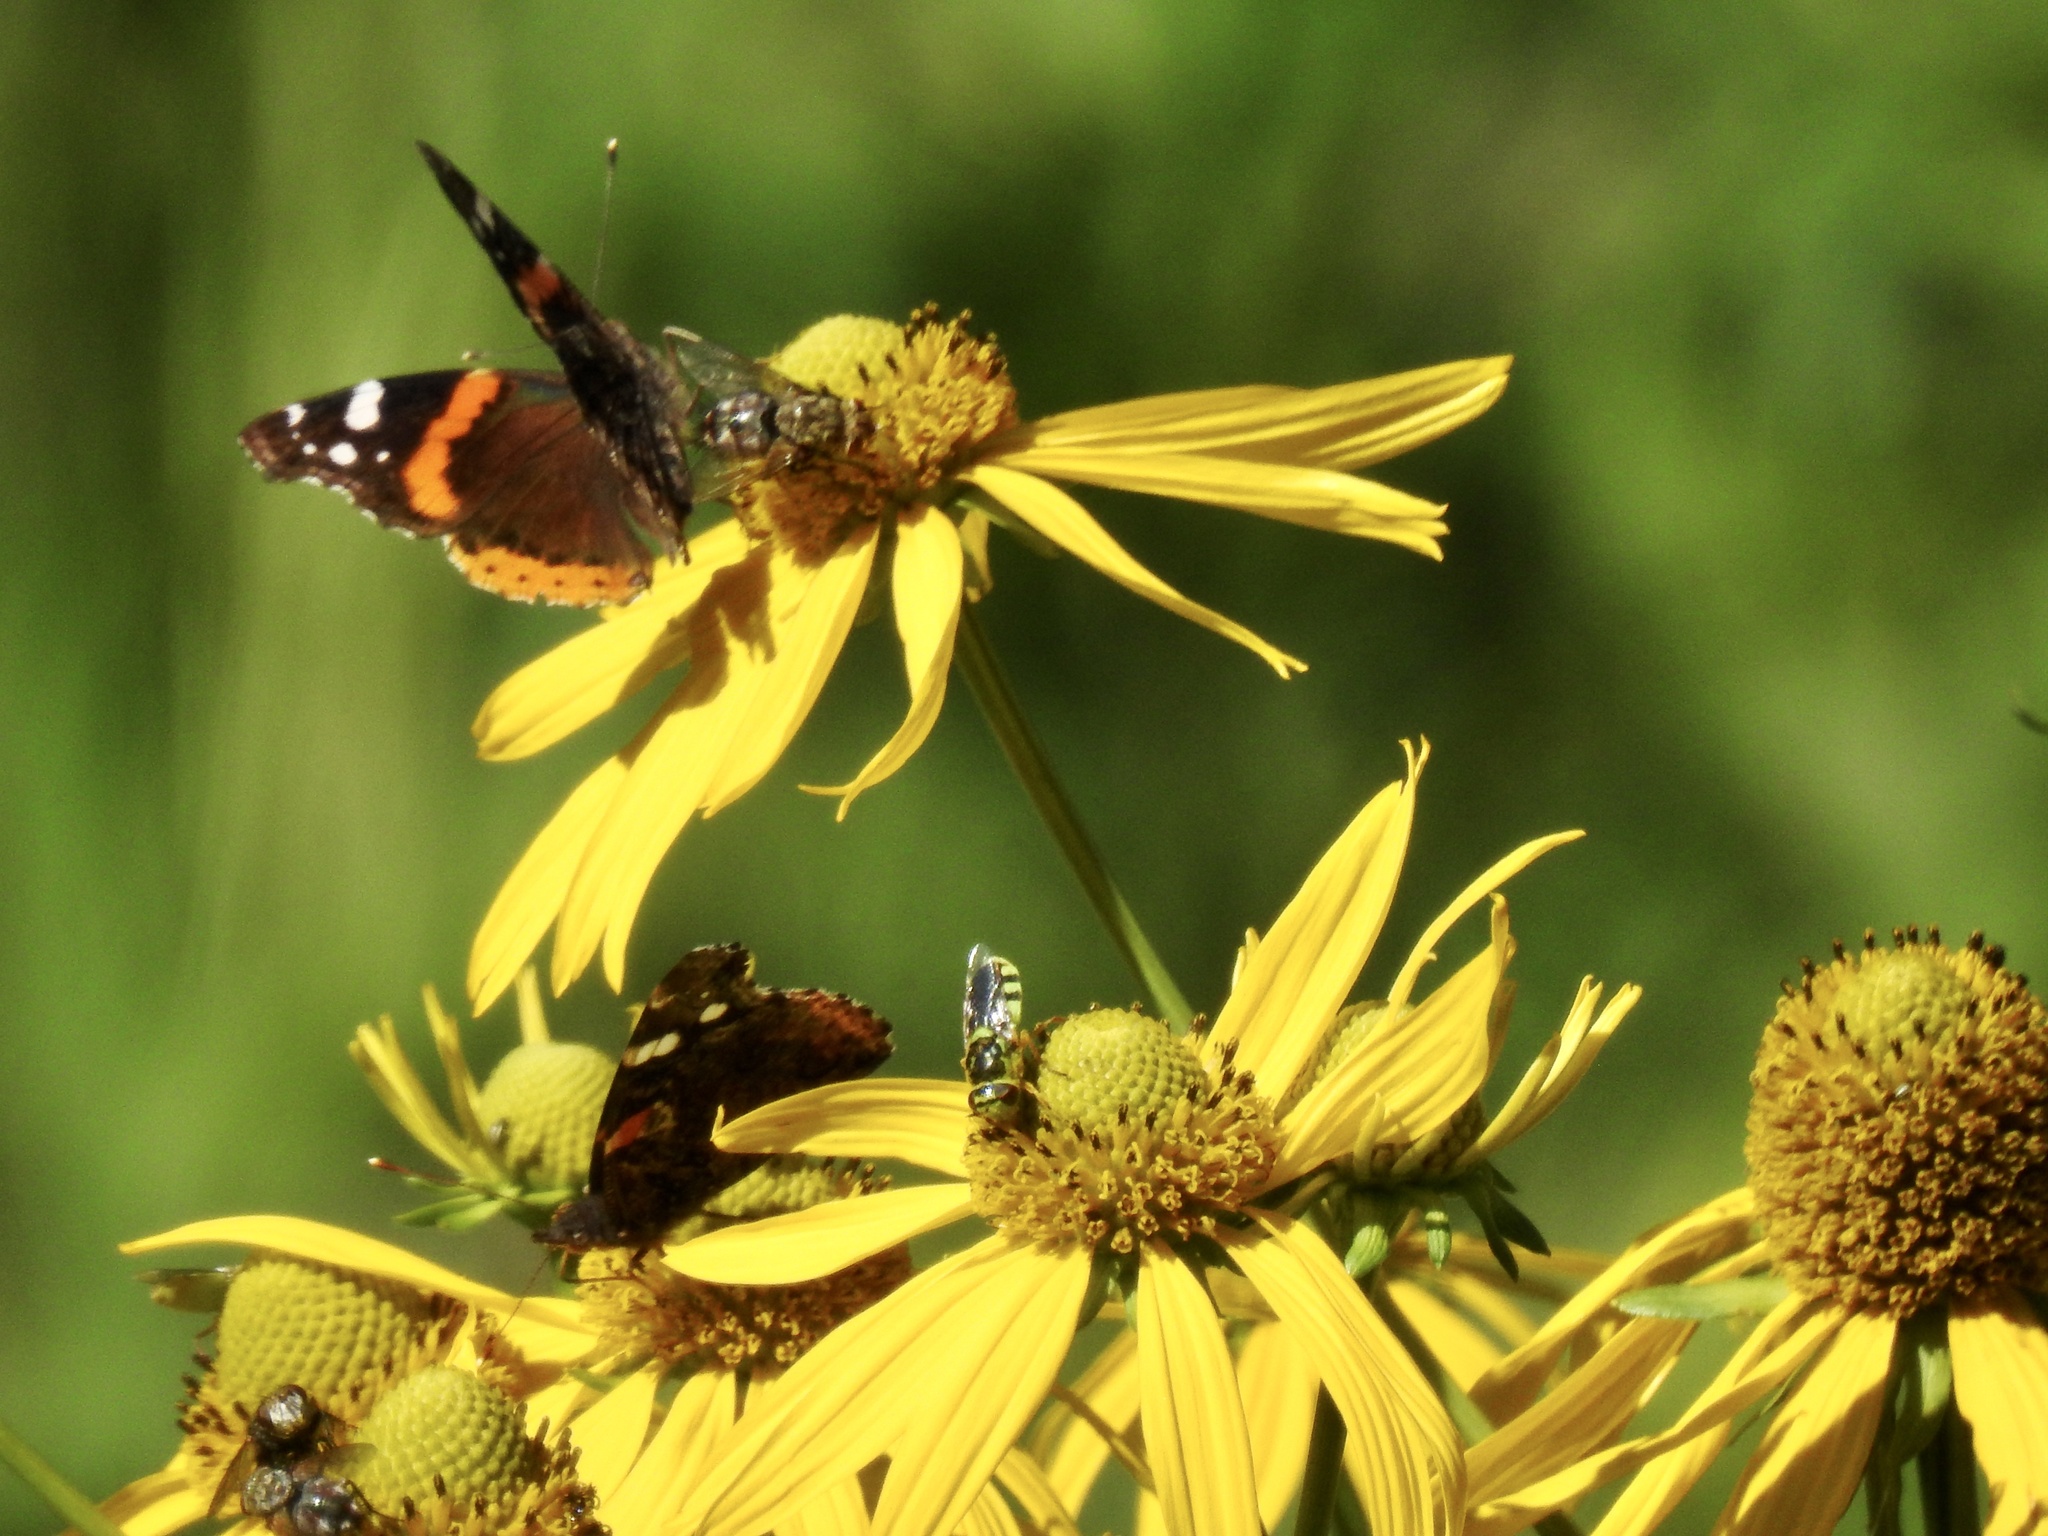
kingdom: Animalia
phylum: Arthropoda
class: Insecta
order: Diptera
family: Stratiomyidae
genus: Hedriodiscus
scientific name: Hedriodiscus binotatus
